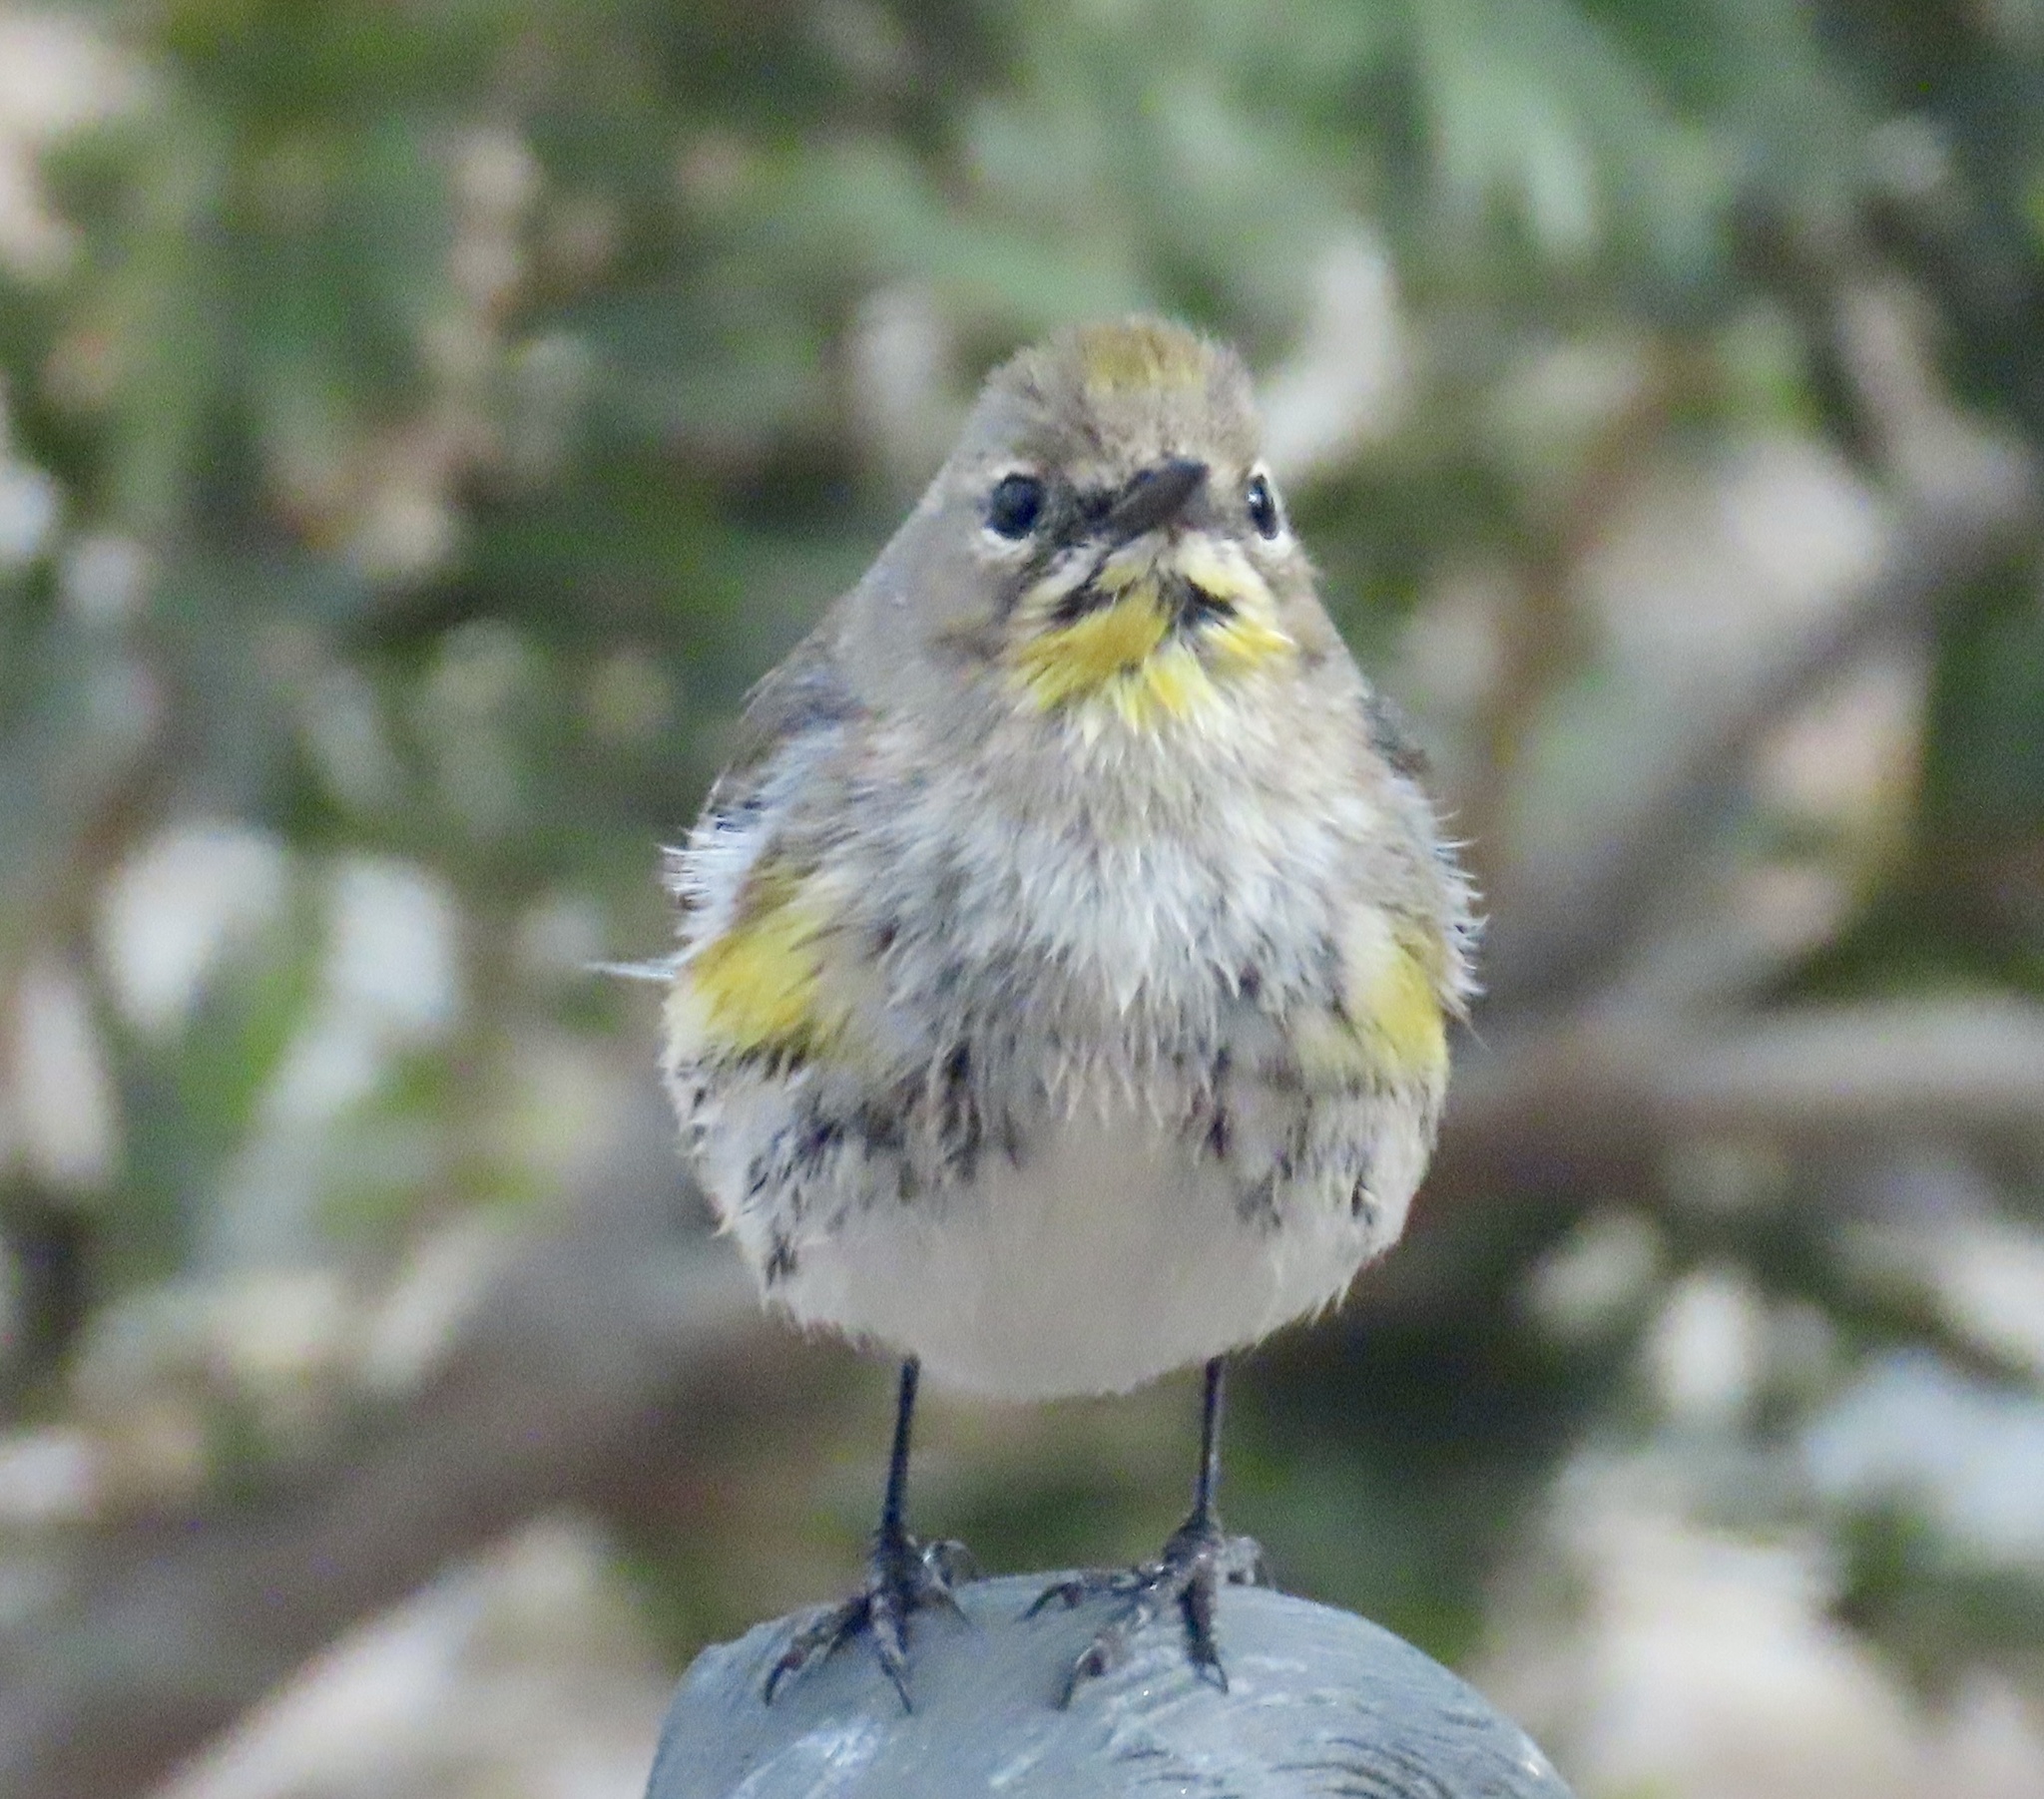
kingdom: Animalia
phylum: Chordata
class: Aves
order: Passeriformes
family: Parulidae
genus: Setophaga
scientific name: Setophaga coronata
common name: Myrtle warbler
